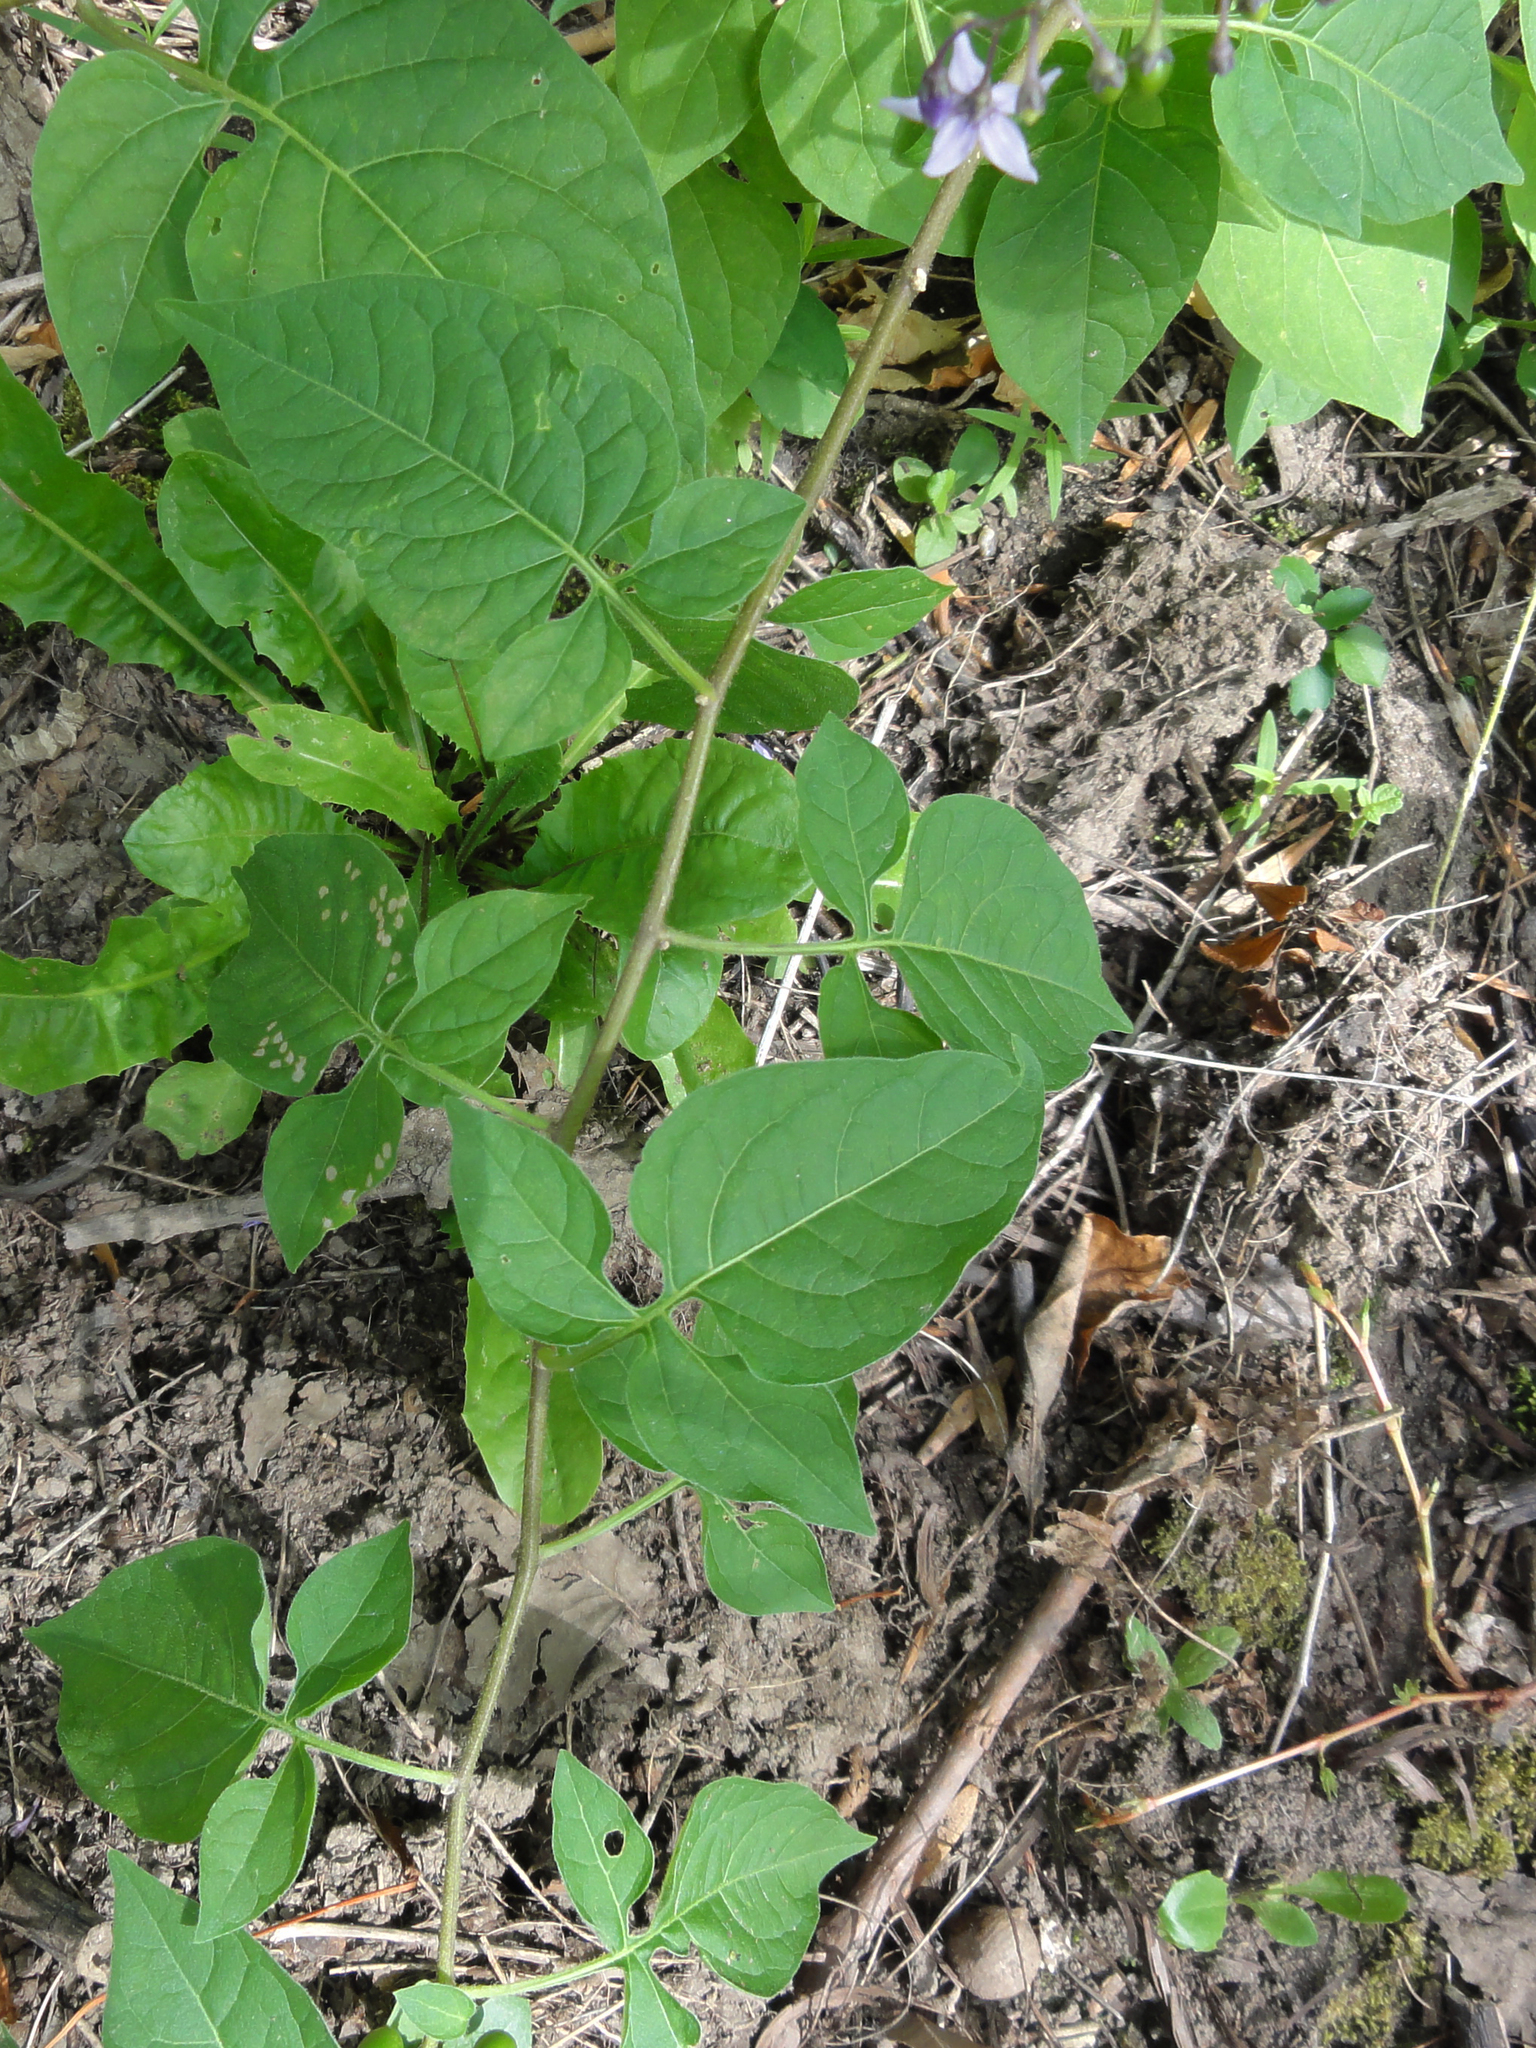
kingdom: Plantae
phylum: Tracheophyta
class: Magnoliopsida
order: Solanales
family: Solanaceae
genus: Solanum
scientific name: Solanum dulcamara
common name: Climbing nightshade
